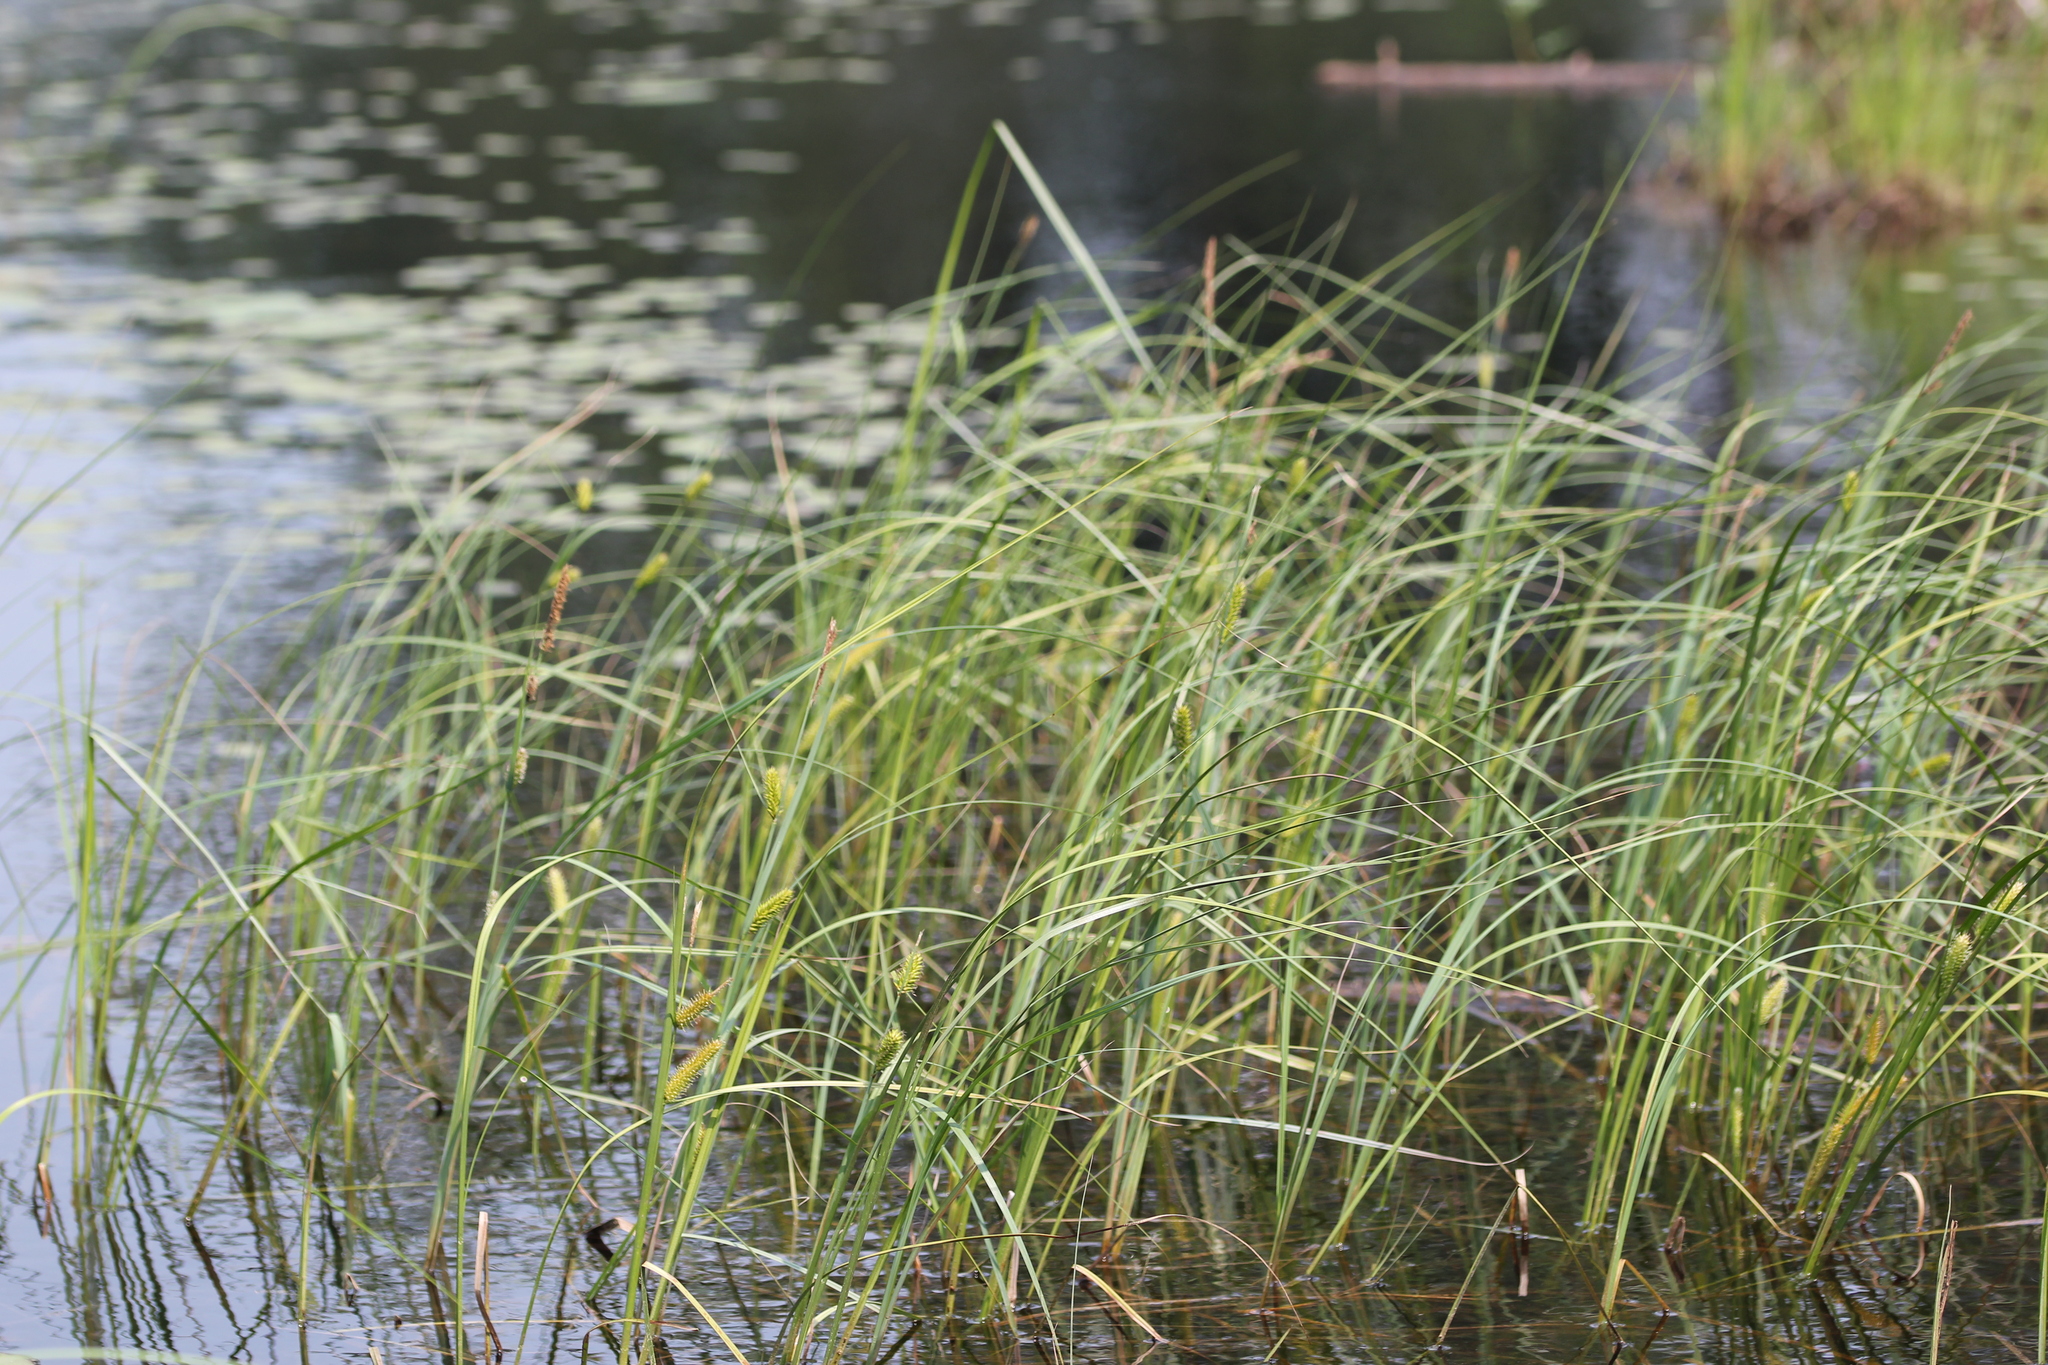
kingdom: Plantae
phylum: Tracheophyta
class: Liliopsida
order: Poales
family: Cyperaceae
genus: Carex
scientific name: Carex lacustris
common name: Common lake sedge
